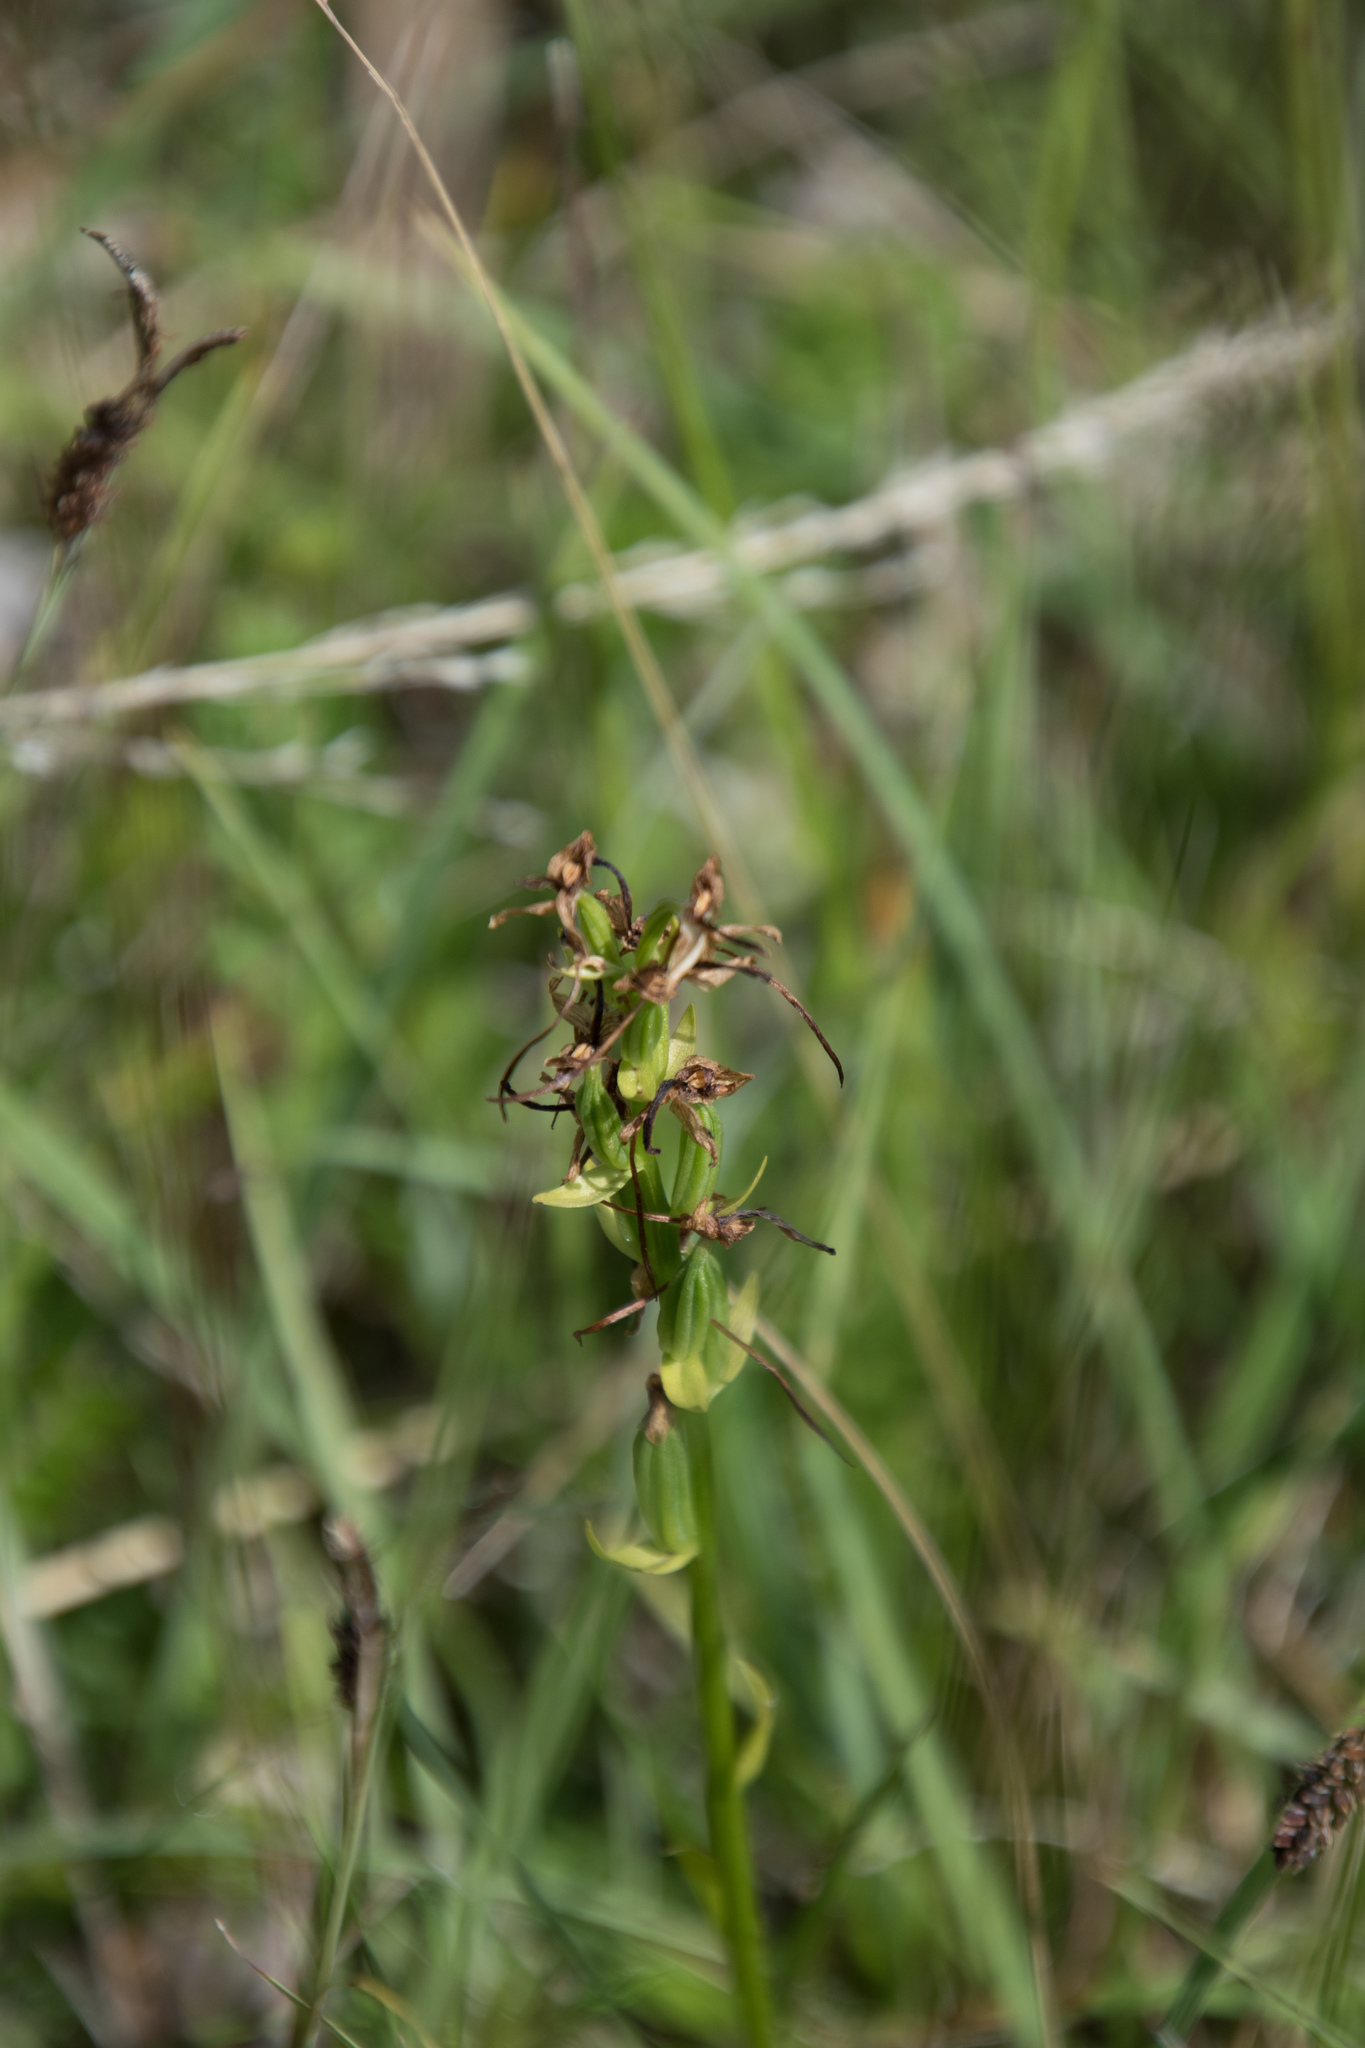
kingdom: Plantae
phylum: Tracheophyta
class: Liliopsida
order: Asparagales
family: Orchidaceae
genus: Platanthera
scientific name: Platanthera bifolia
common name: Lesser butterfly-orchid
